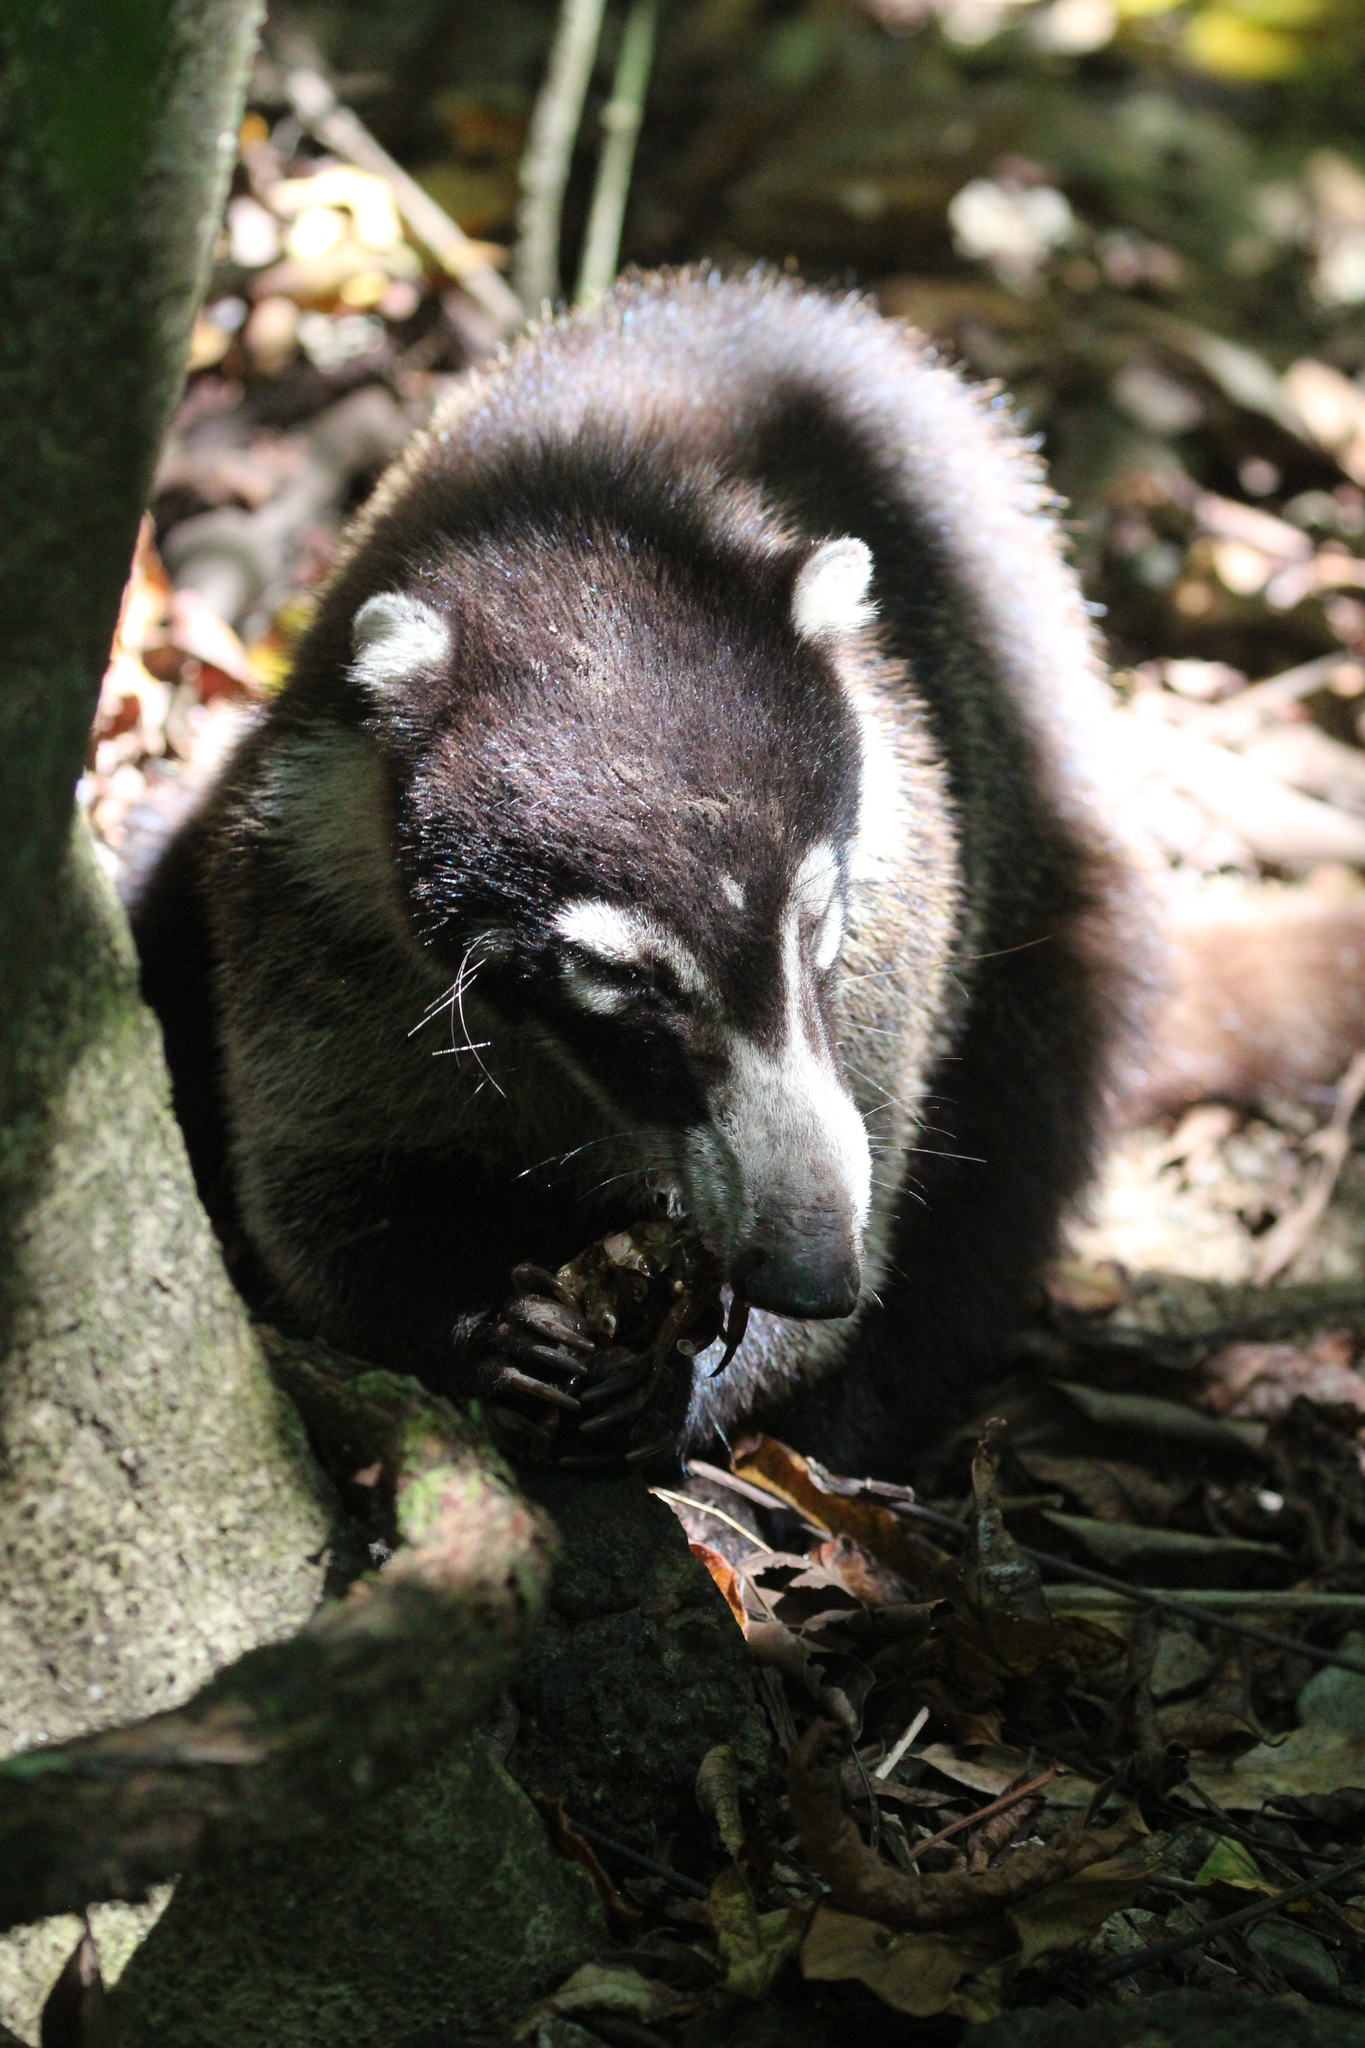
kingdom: Animalia
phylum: Chordata
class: Mammalia
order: Carnivora
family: Procyonidae
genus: Nasua
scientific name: Nasua narica
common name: White-nosed coati
